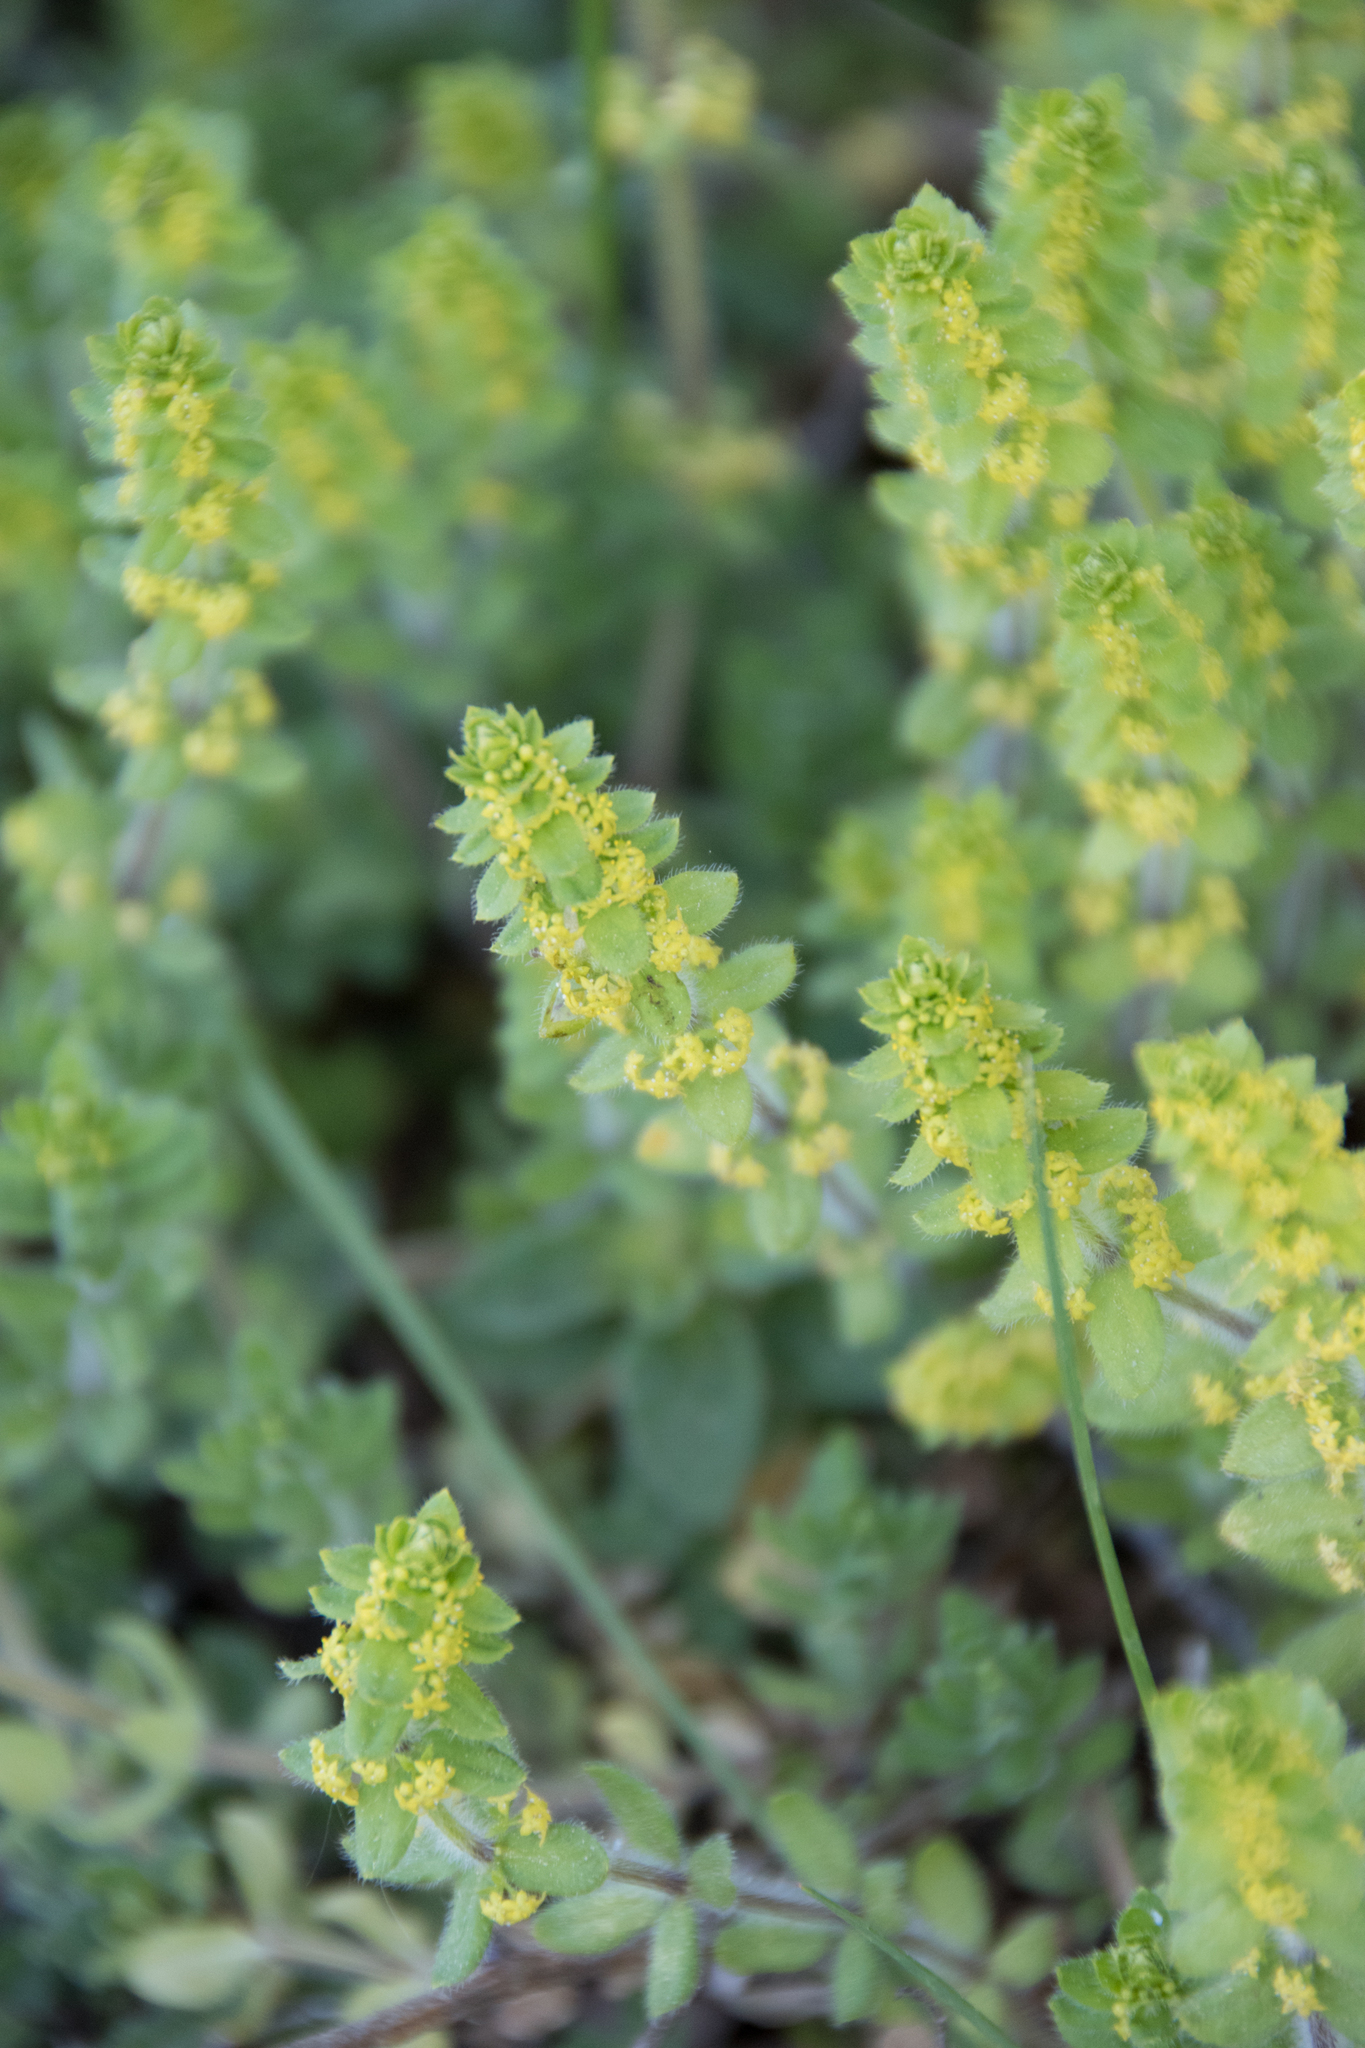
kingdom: Plantae
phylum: Tracheophyta
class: Magnoliopsida
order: Gentianales
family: Rubiaceae
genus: Cruciata
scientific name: Cruciata laevipes
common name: Crosswort
